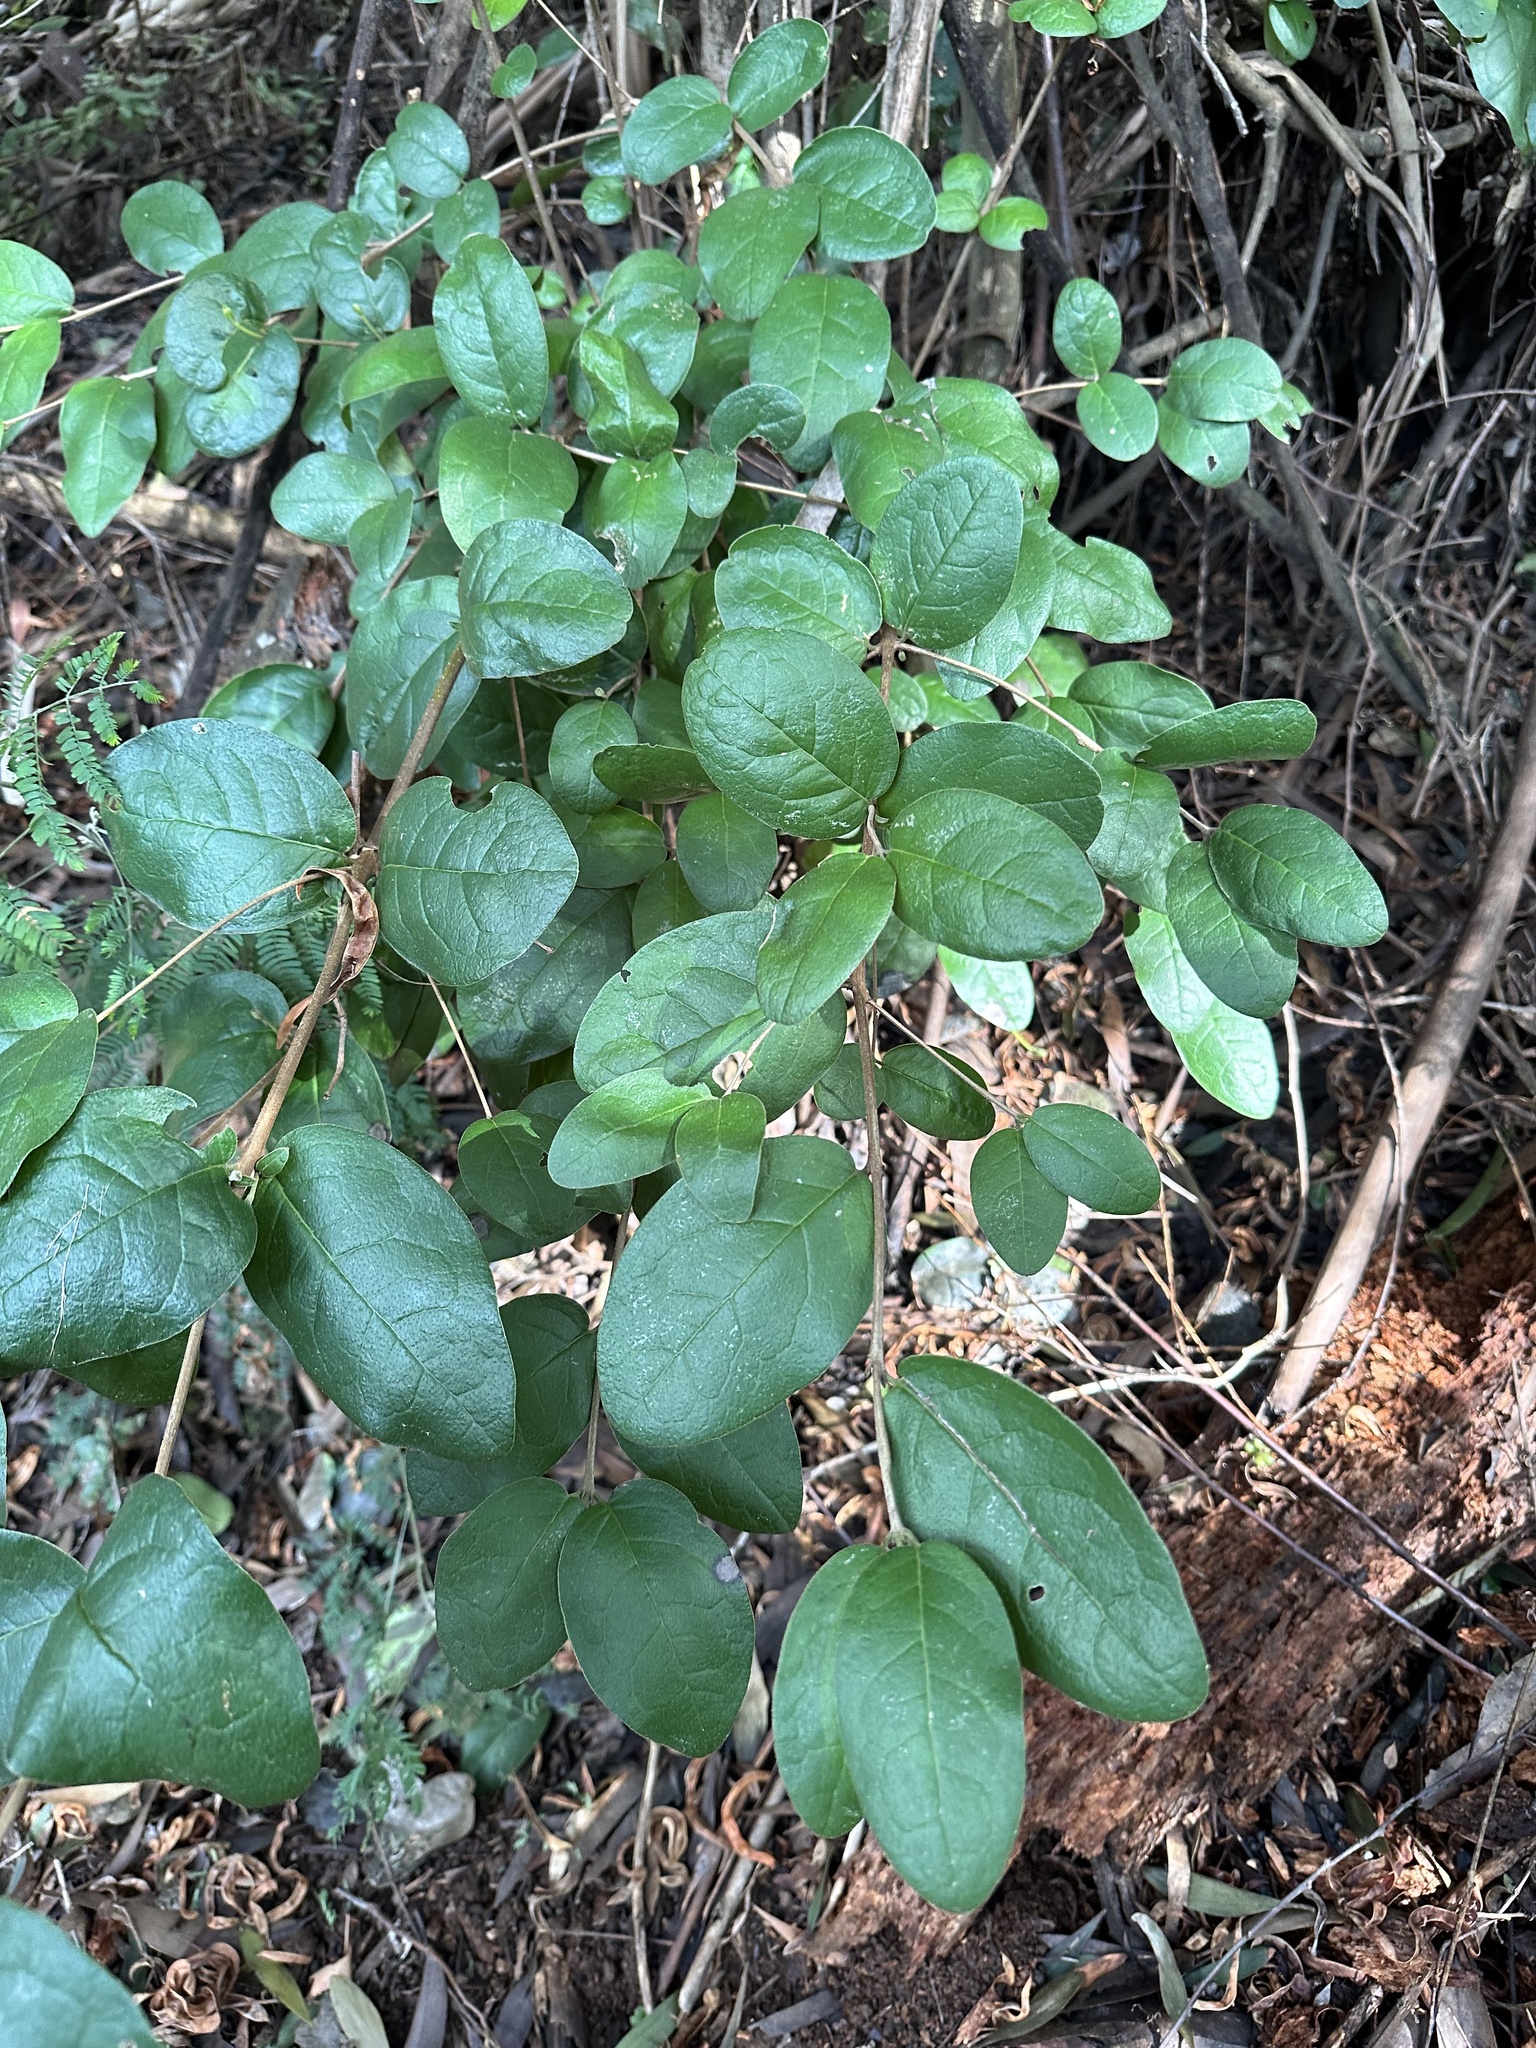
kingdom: Plantae
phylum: Tracheophyta
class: Magnoliopsida
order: Laurales
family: Monimiaceae
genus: Peumus
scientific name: Peumus boldus
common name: Boldo
